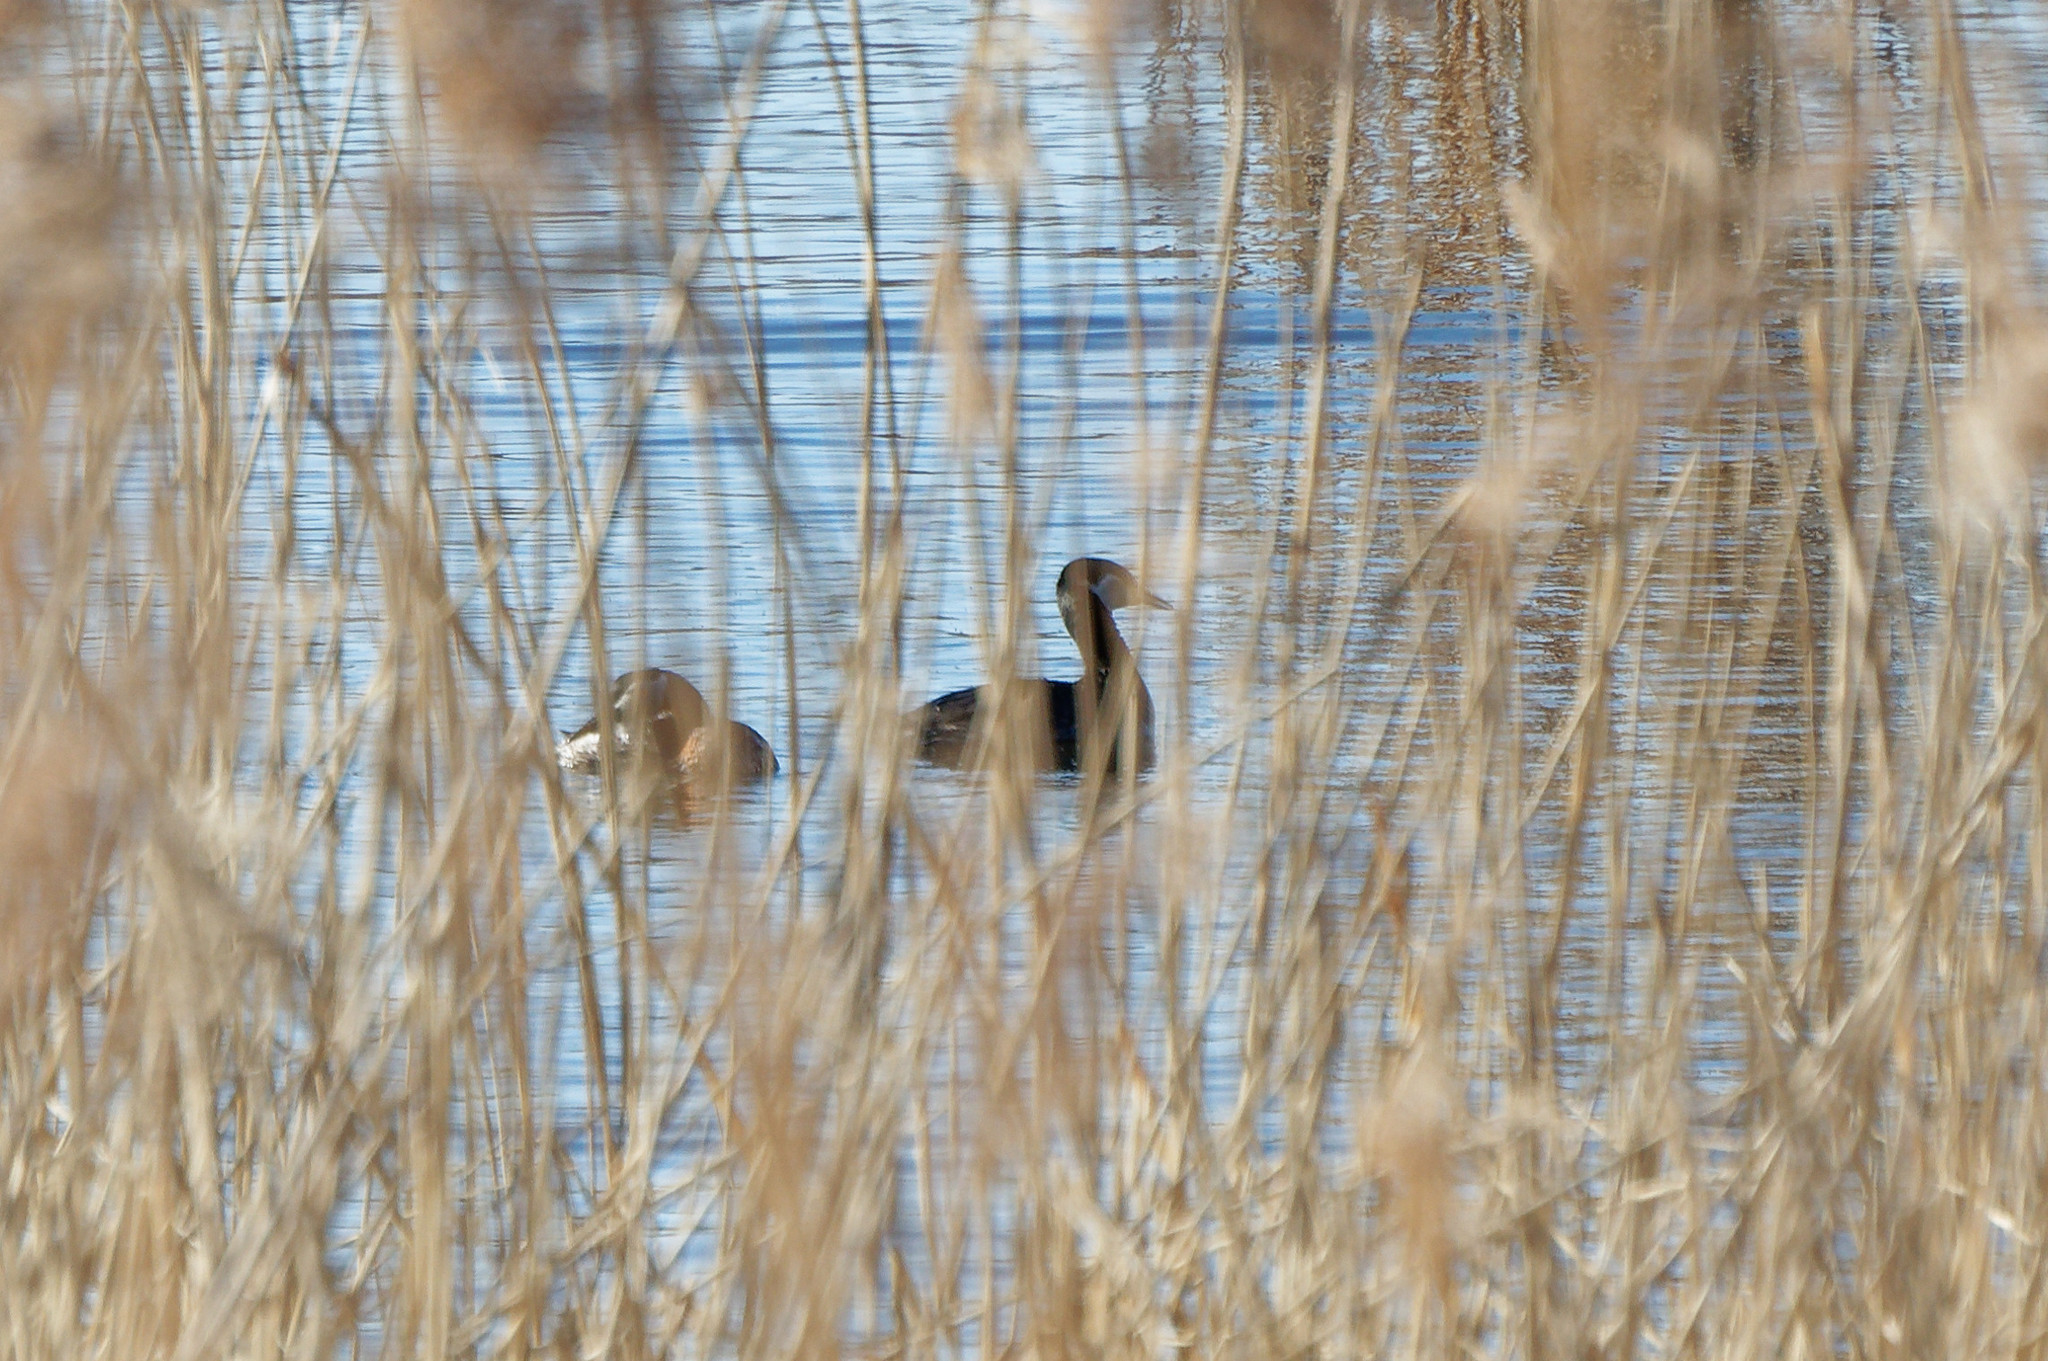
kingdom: Animalia
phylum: Chordata
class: Aves
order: Podicipediformes
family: Podicipedidae
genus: Podiceps
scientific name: Podiceps grisegena
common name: Red-necked grebe
